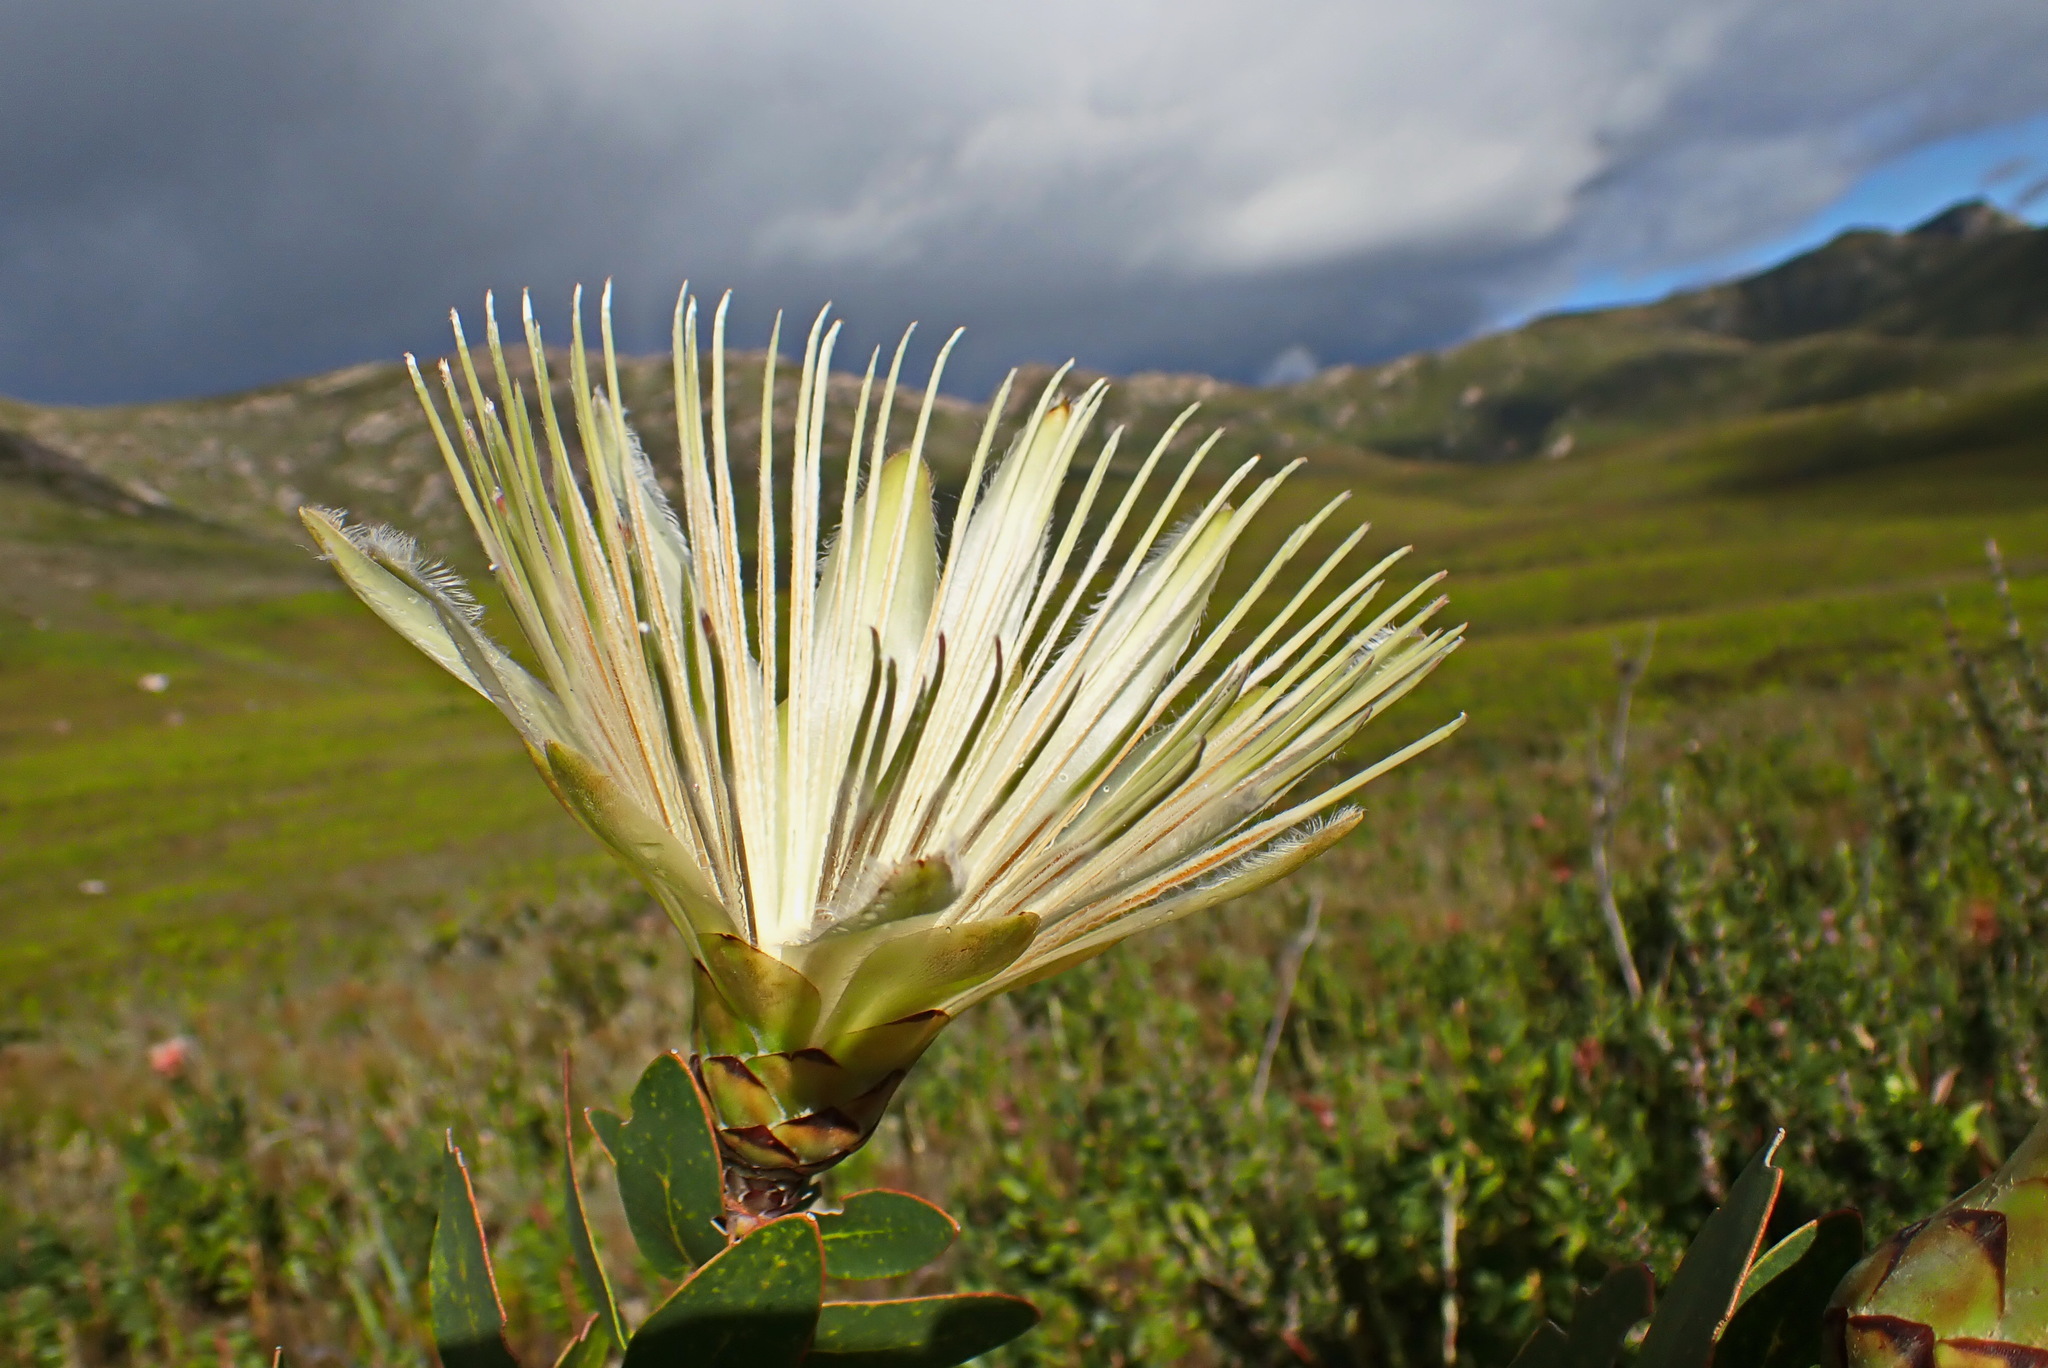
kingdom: Plantae
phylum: Tracheophyta
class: Magnoliopsida
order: Proteales
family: Proteaceae
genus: Protea
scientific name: Protea aurea
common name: Shuttlecock sugarbush
